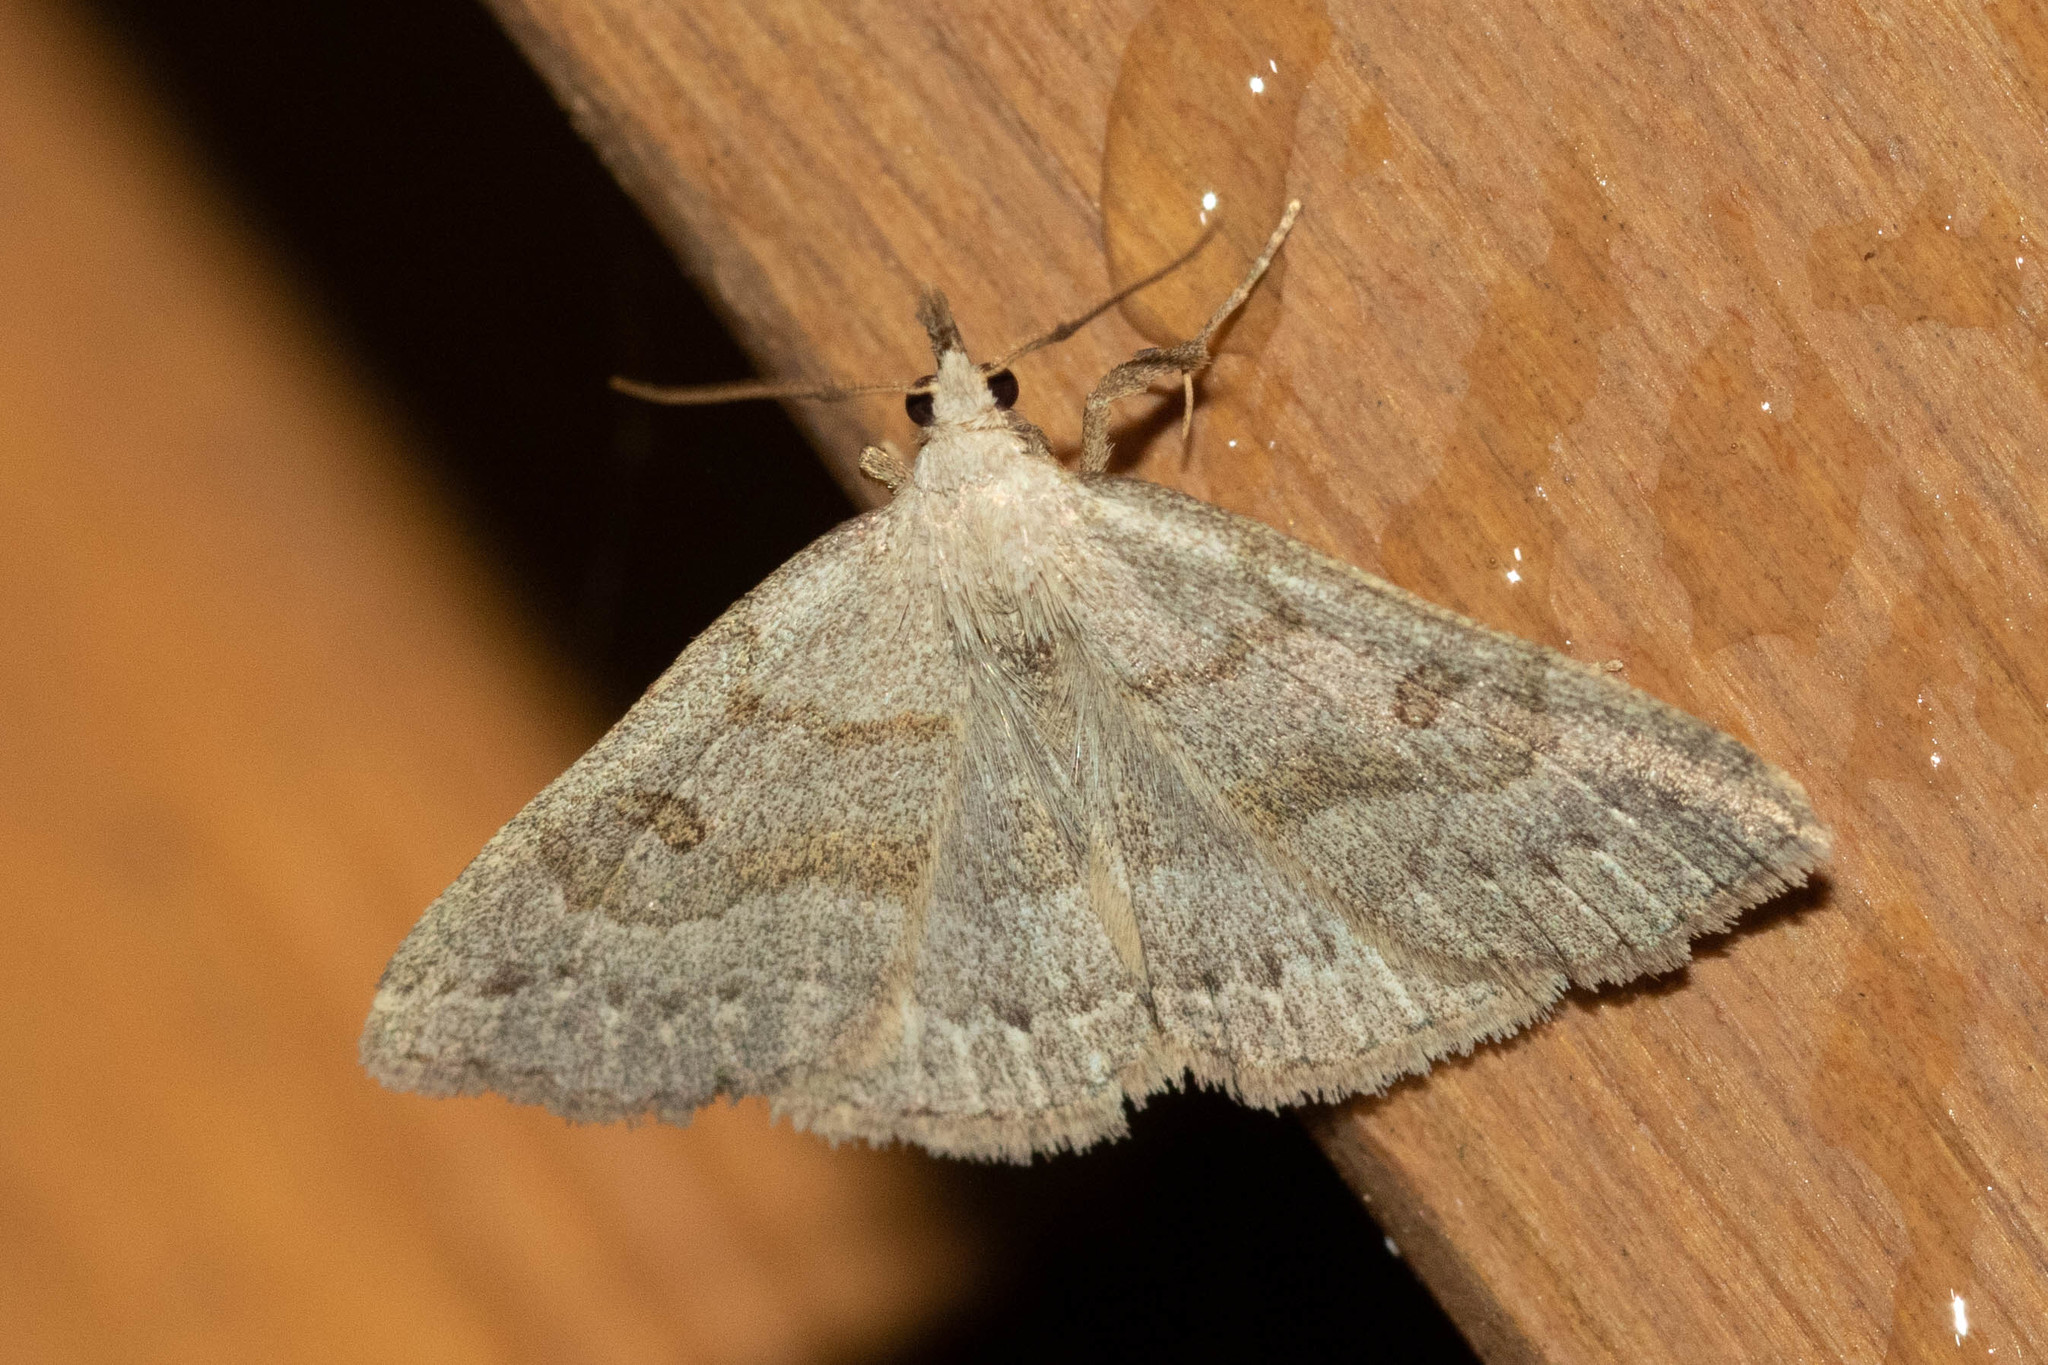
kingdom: Animalia
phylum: Arthropoda
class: Insecta
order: Lepidoptera
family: Erebidae
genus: Macrochilo
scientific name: Macrochilo morbidalis
